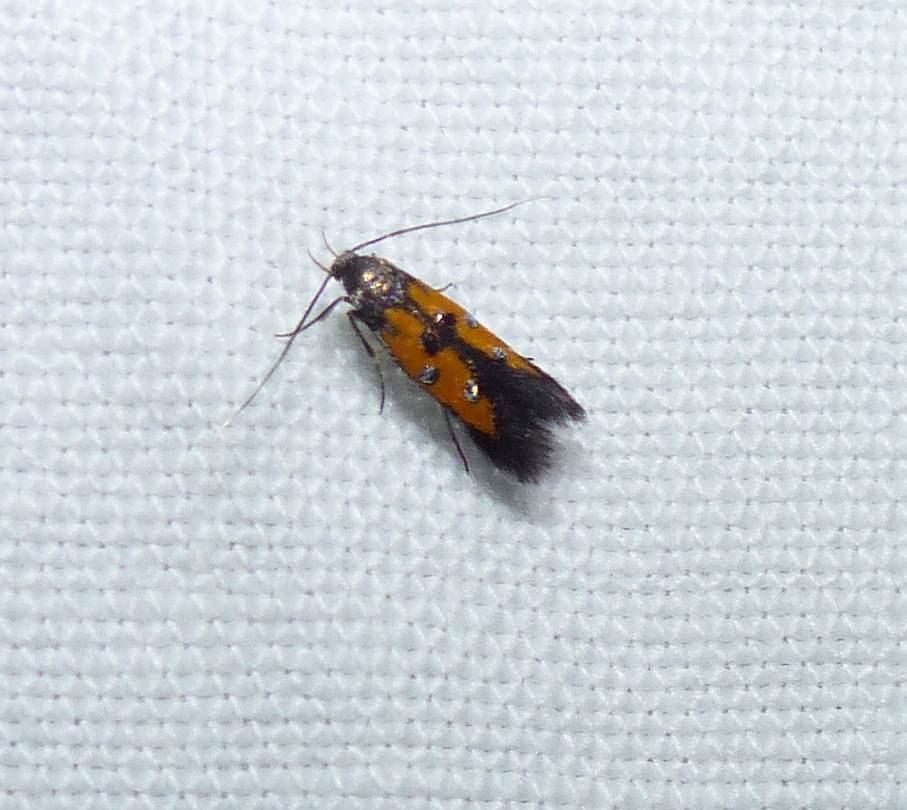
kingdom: Animalia
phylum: Arthropoda
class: Insecta
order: Lepidoptera
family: Elachistidae
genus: Chrysoclista
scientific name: Chrysoclista linneela
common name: Lime cosmet
